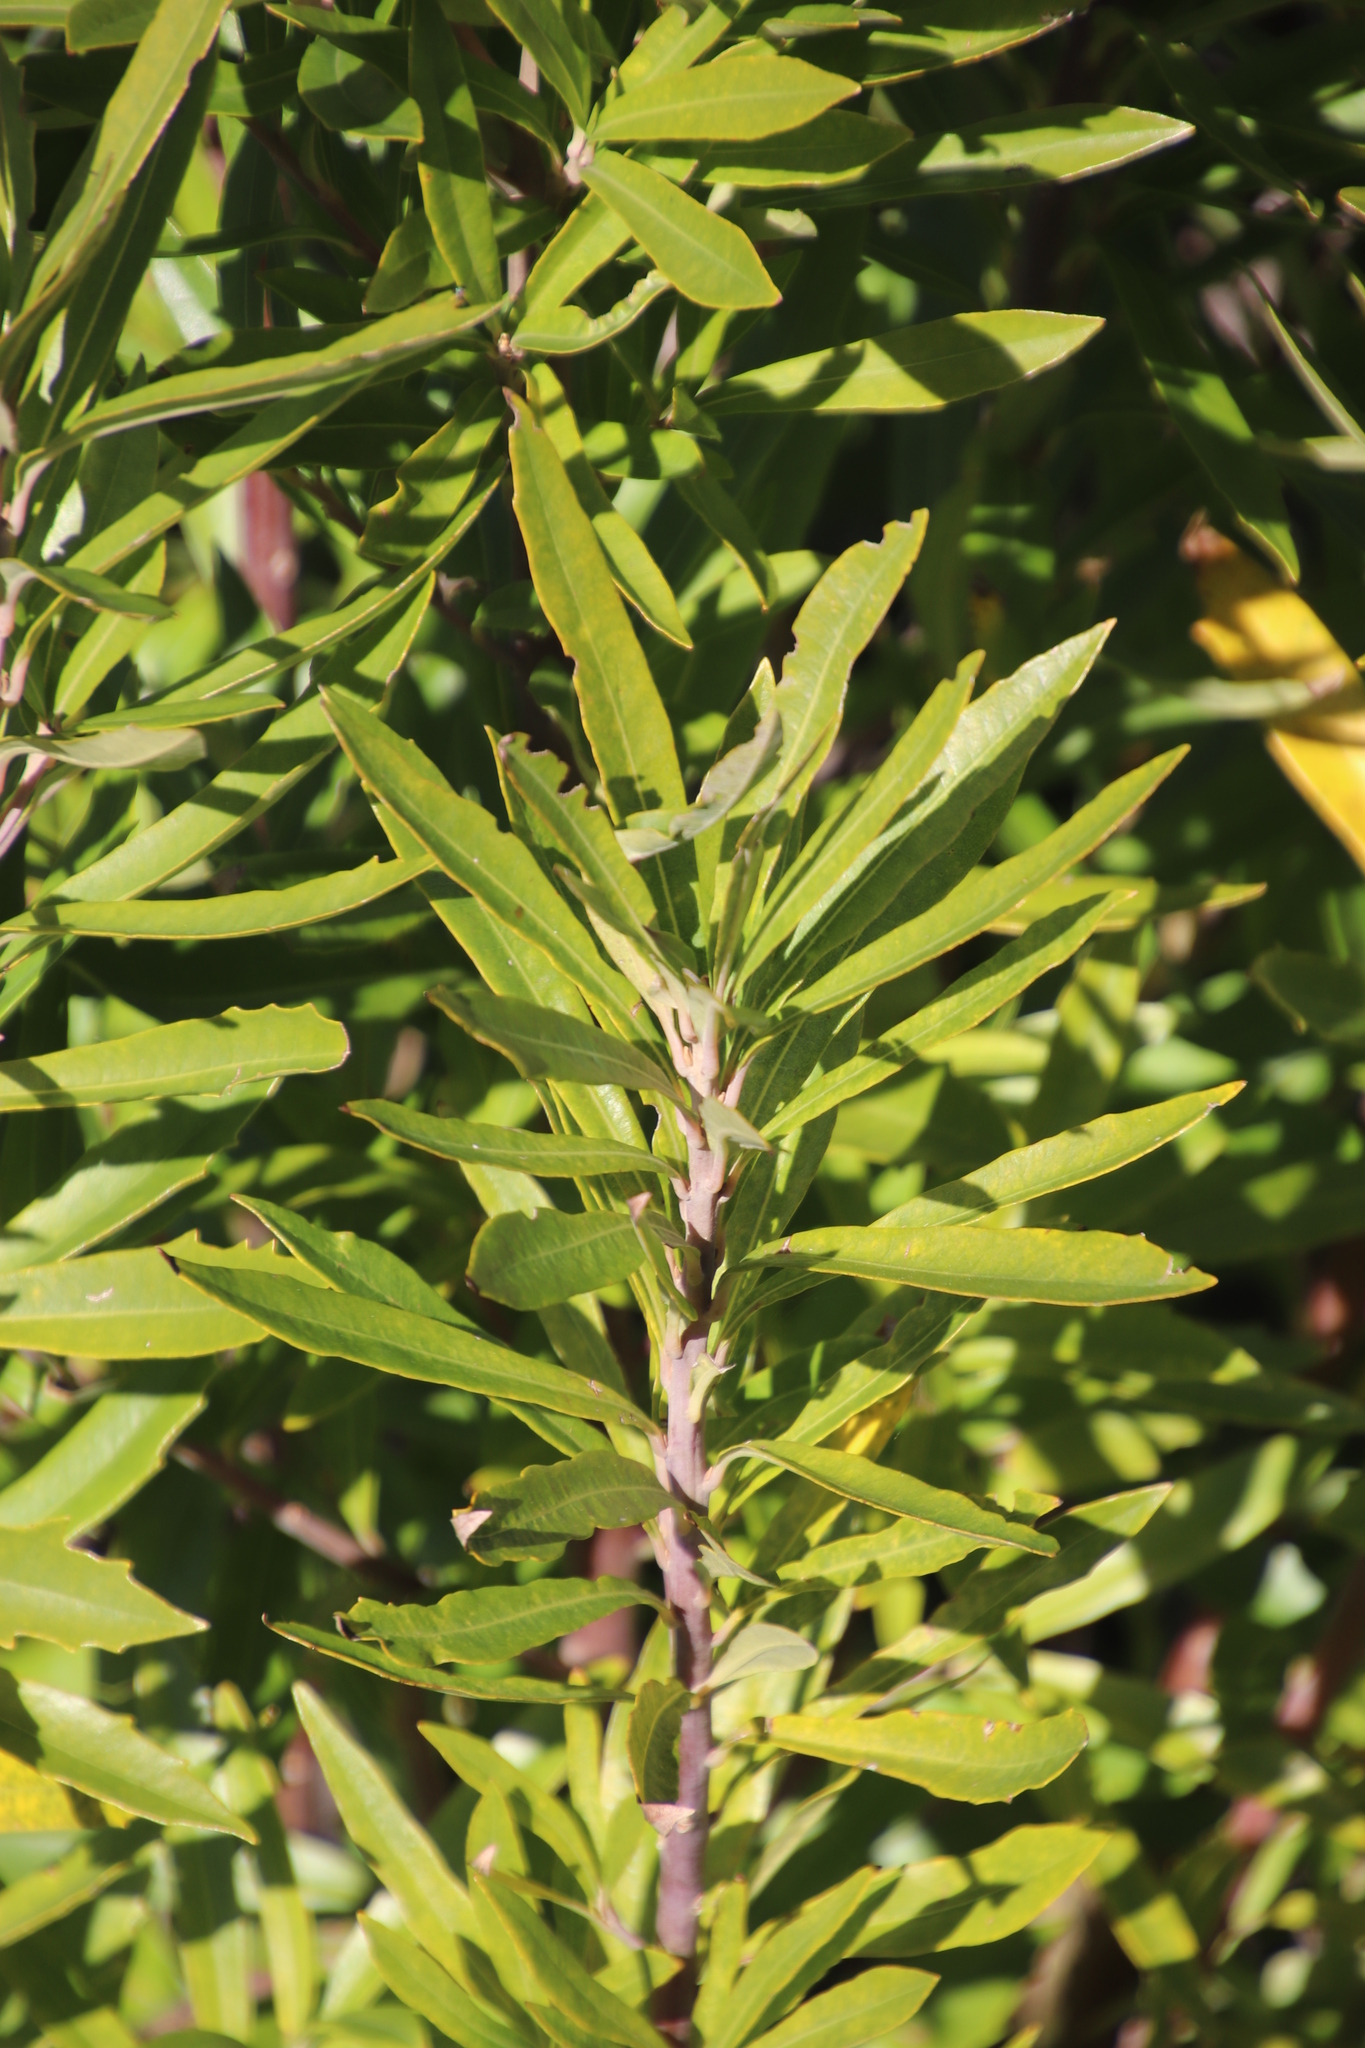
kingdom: Plantae
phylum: Tracheophyta
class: Magnoliopsida
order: Asterales
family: Asteraceae
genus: Brachylaena
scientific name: Brachylaena neriifolia
